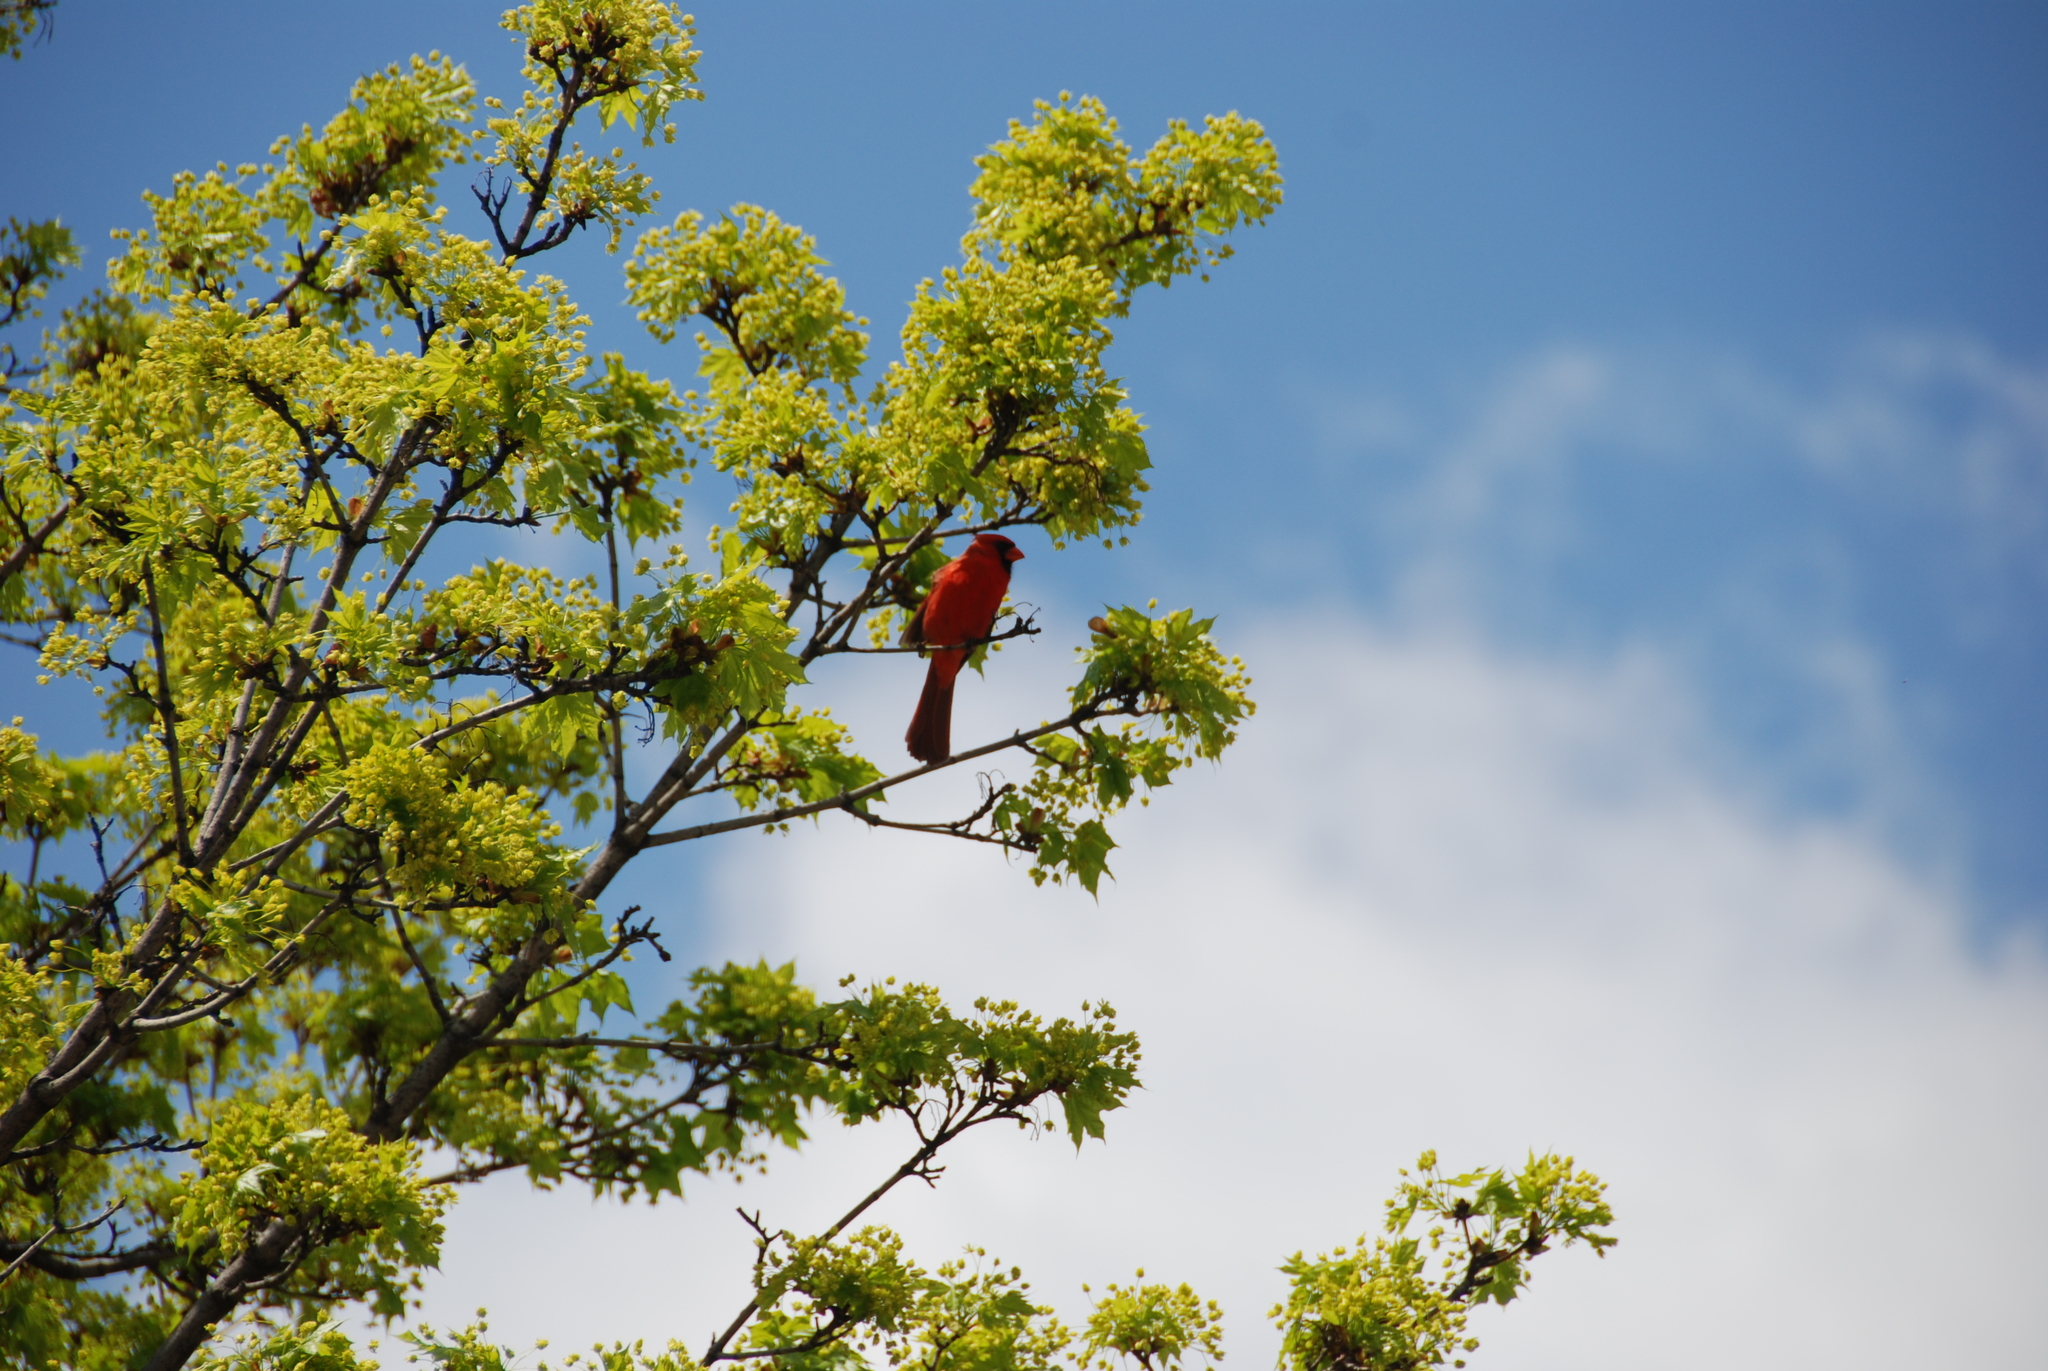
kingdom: Animalia
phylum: Chordata
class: Aves
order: Passeriformes
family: Cardinalidae
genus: Cardinalis
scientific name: Cardinalis cardinalis
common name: Northern cardinal
